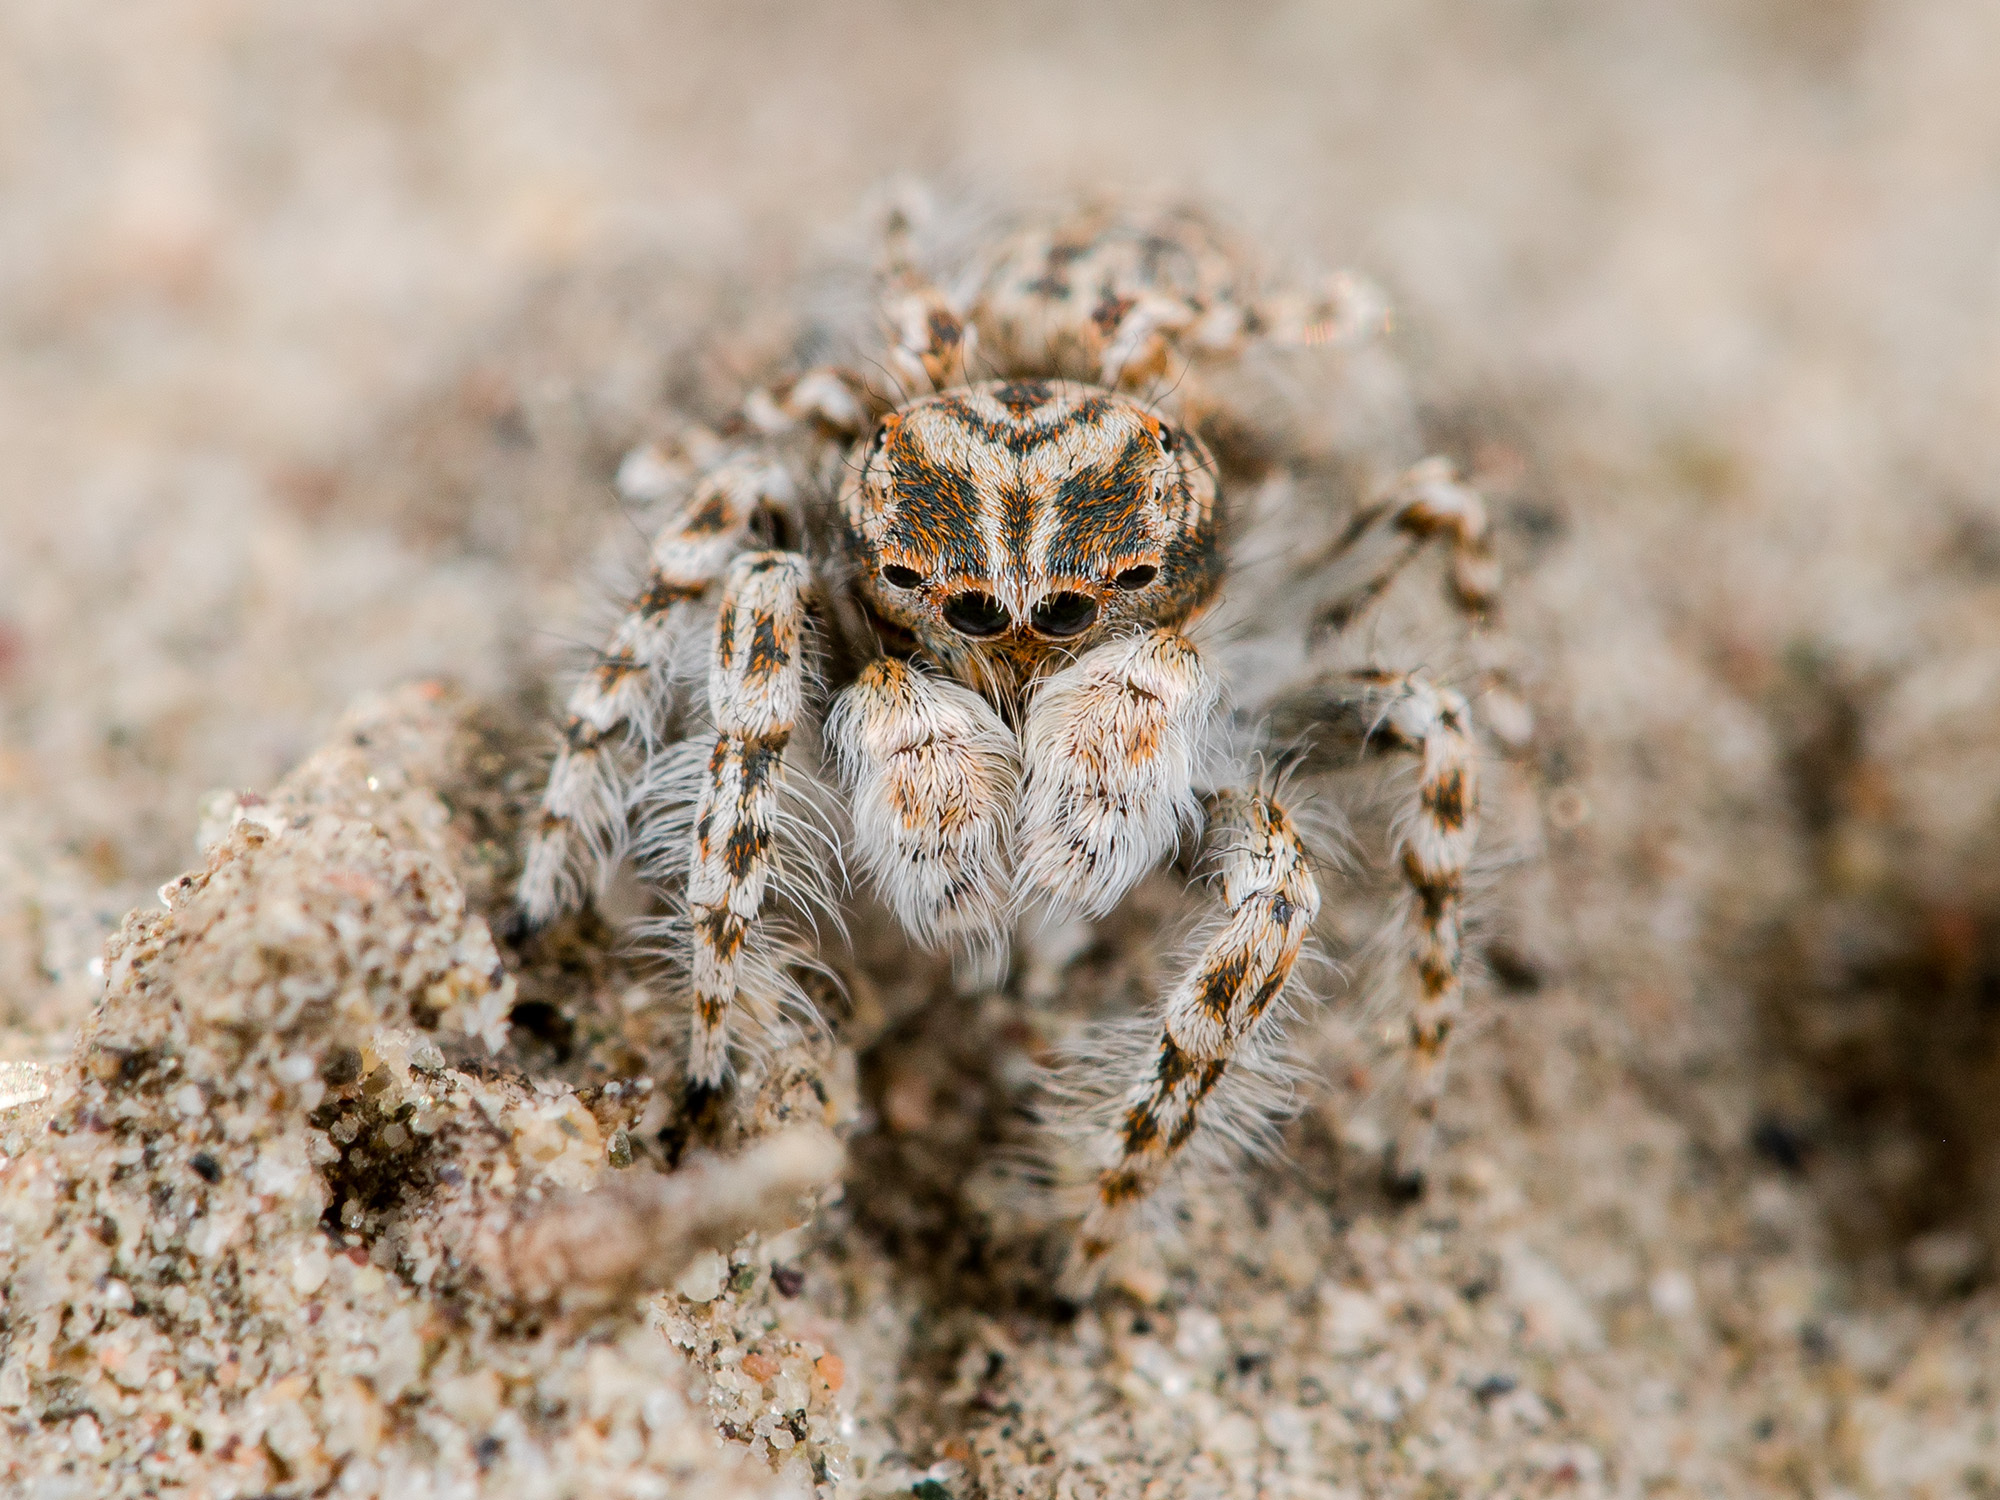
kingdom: Animalia
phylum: Arthropoda
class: Arachnida
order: Araneae
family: Salticidae
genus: Yllenus
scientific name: Yllenus uiguricus
